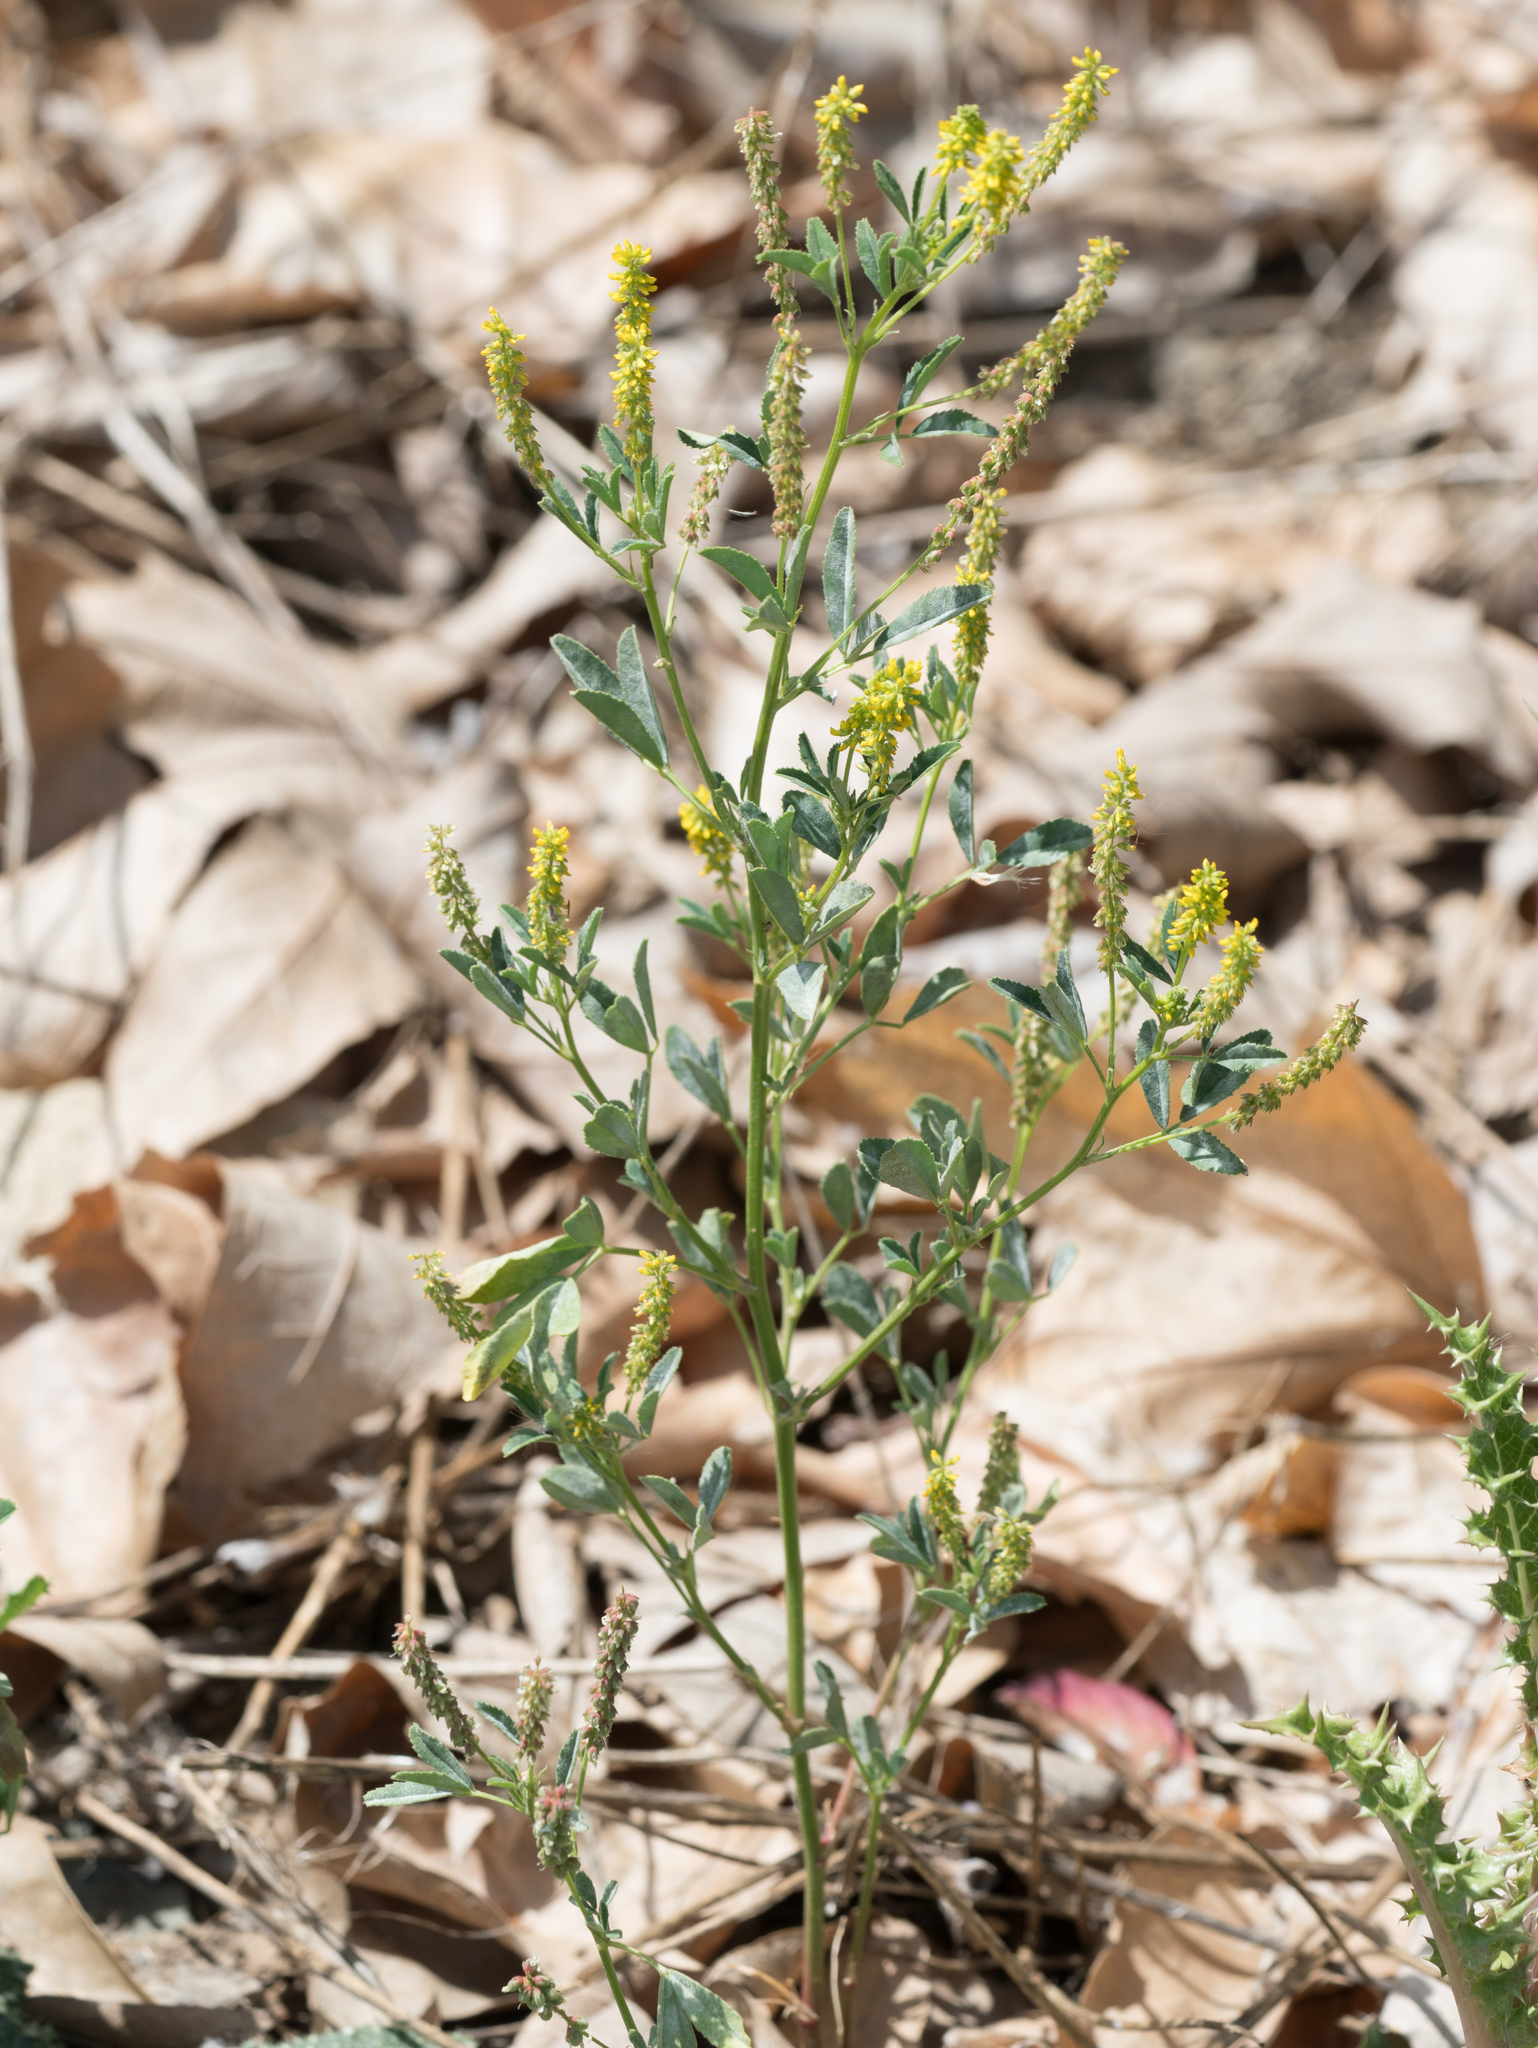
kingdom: Plantae
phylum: Tracheophyta
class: Magnoliopsida
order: Fabales
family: Fabaceae
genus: Melilotus
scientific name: Melilotus indicus
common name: Small melilot
